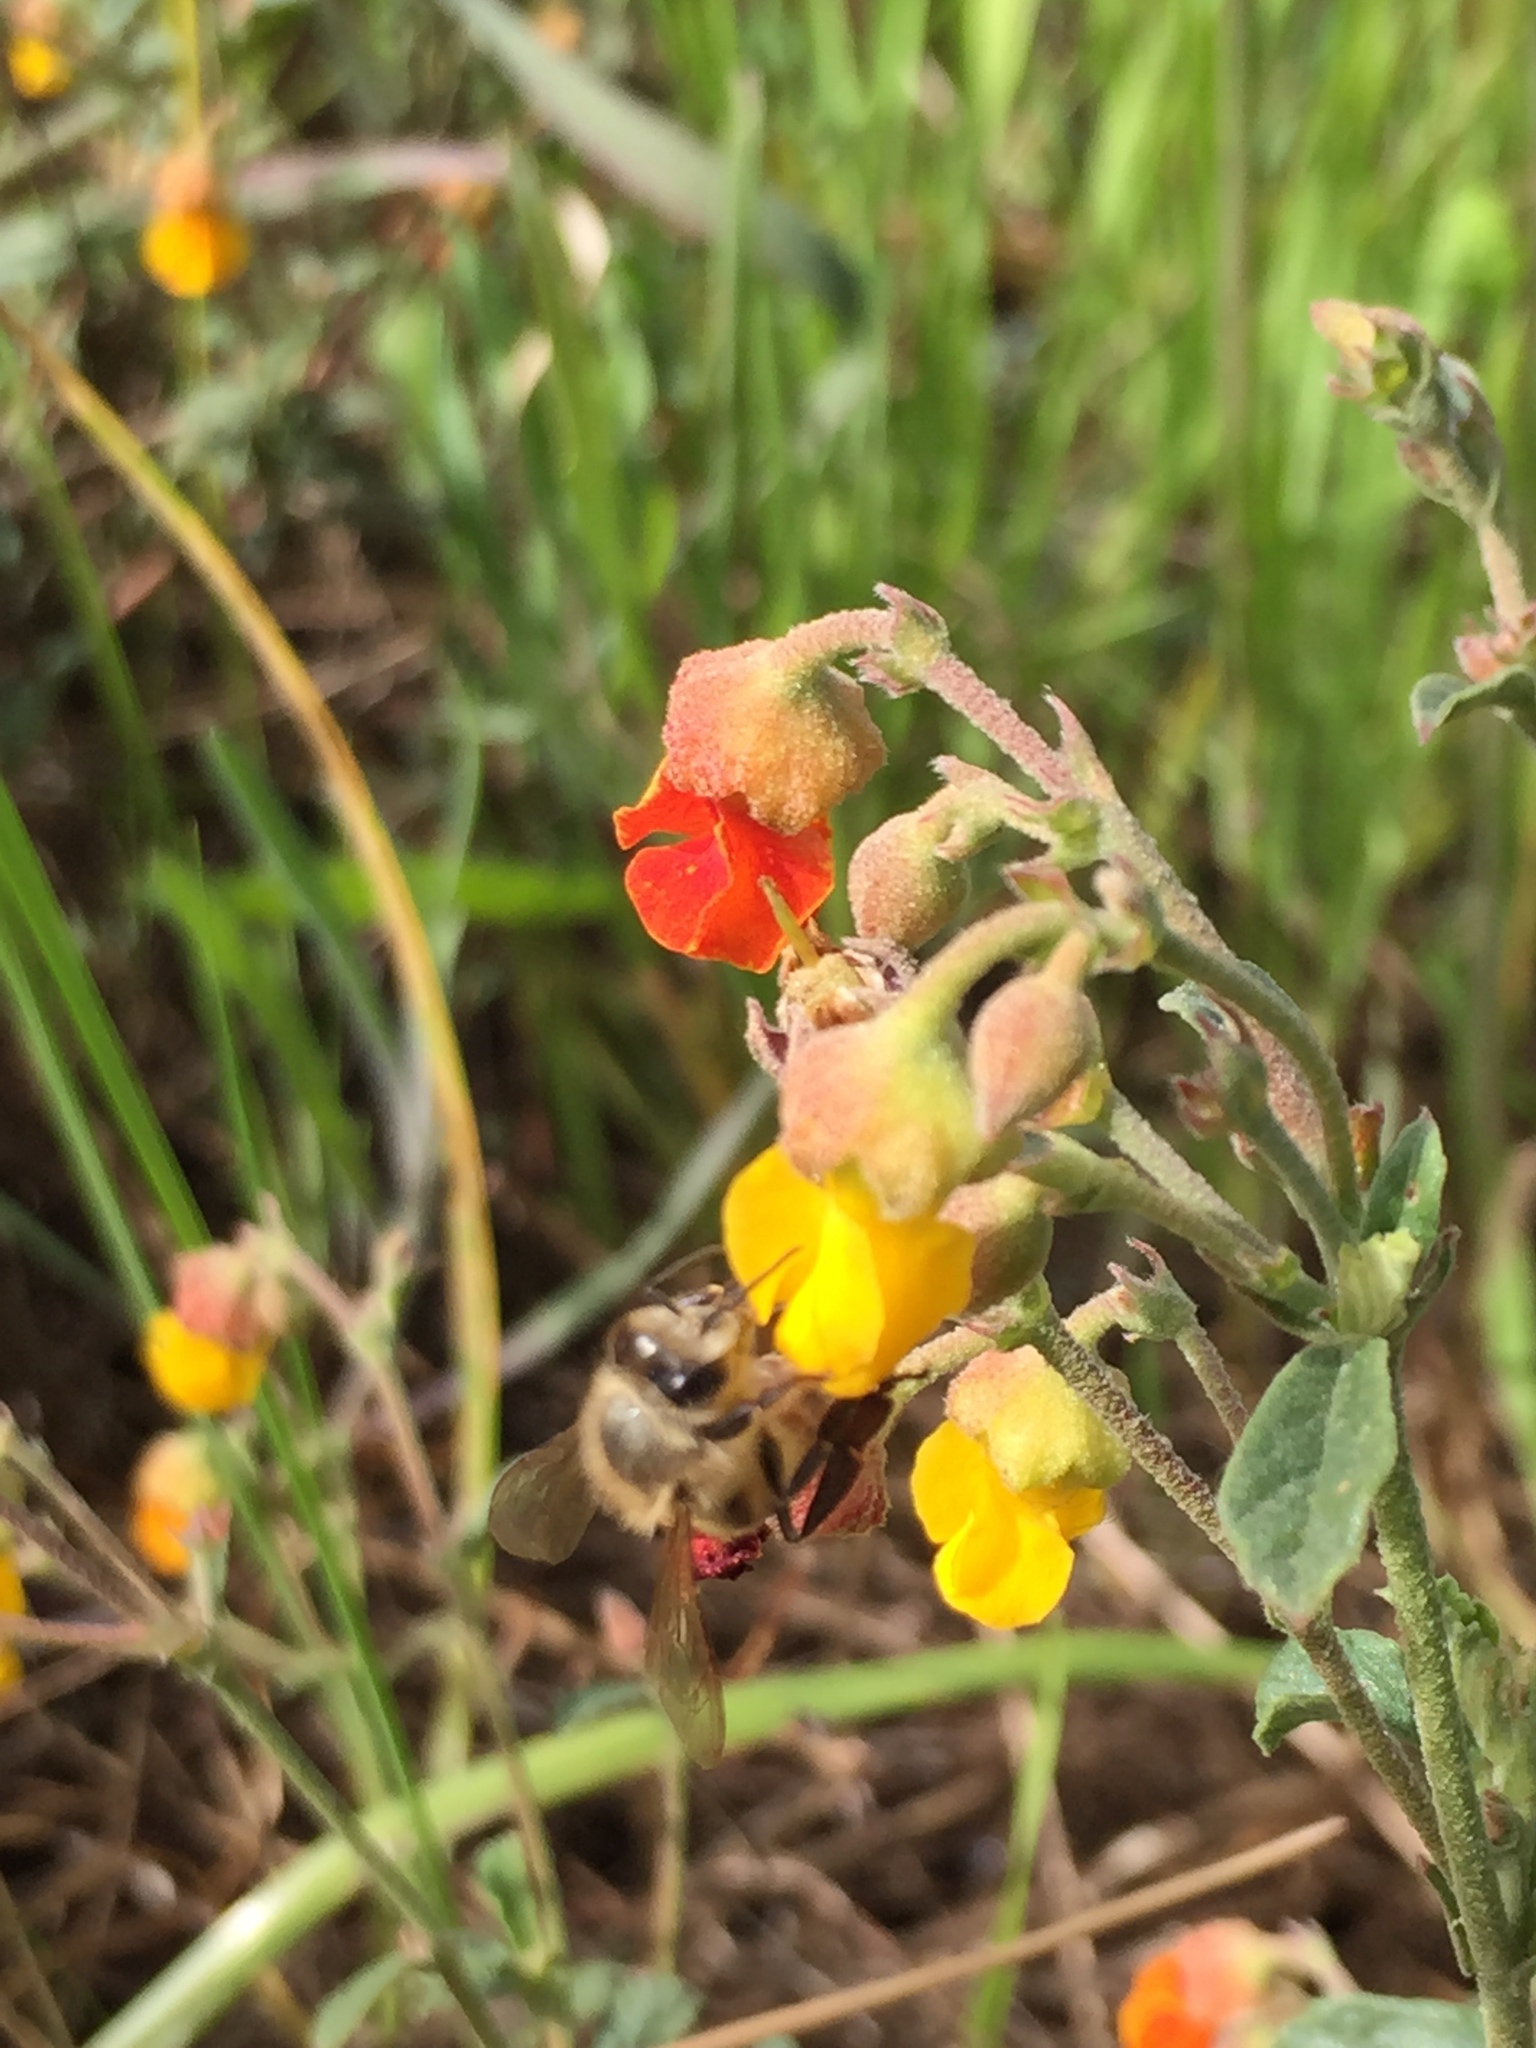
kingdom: Plantae
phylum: Tracheophyta
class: Magnoliopsida
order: Malvales
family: Malvaceae
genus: Hermannia
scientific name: Hermannia multiflora
